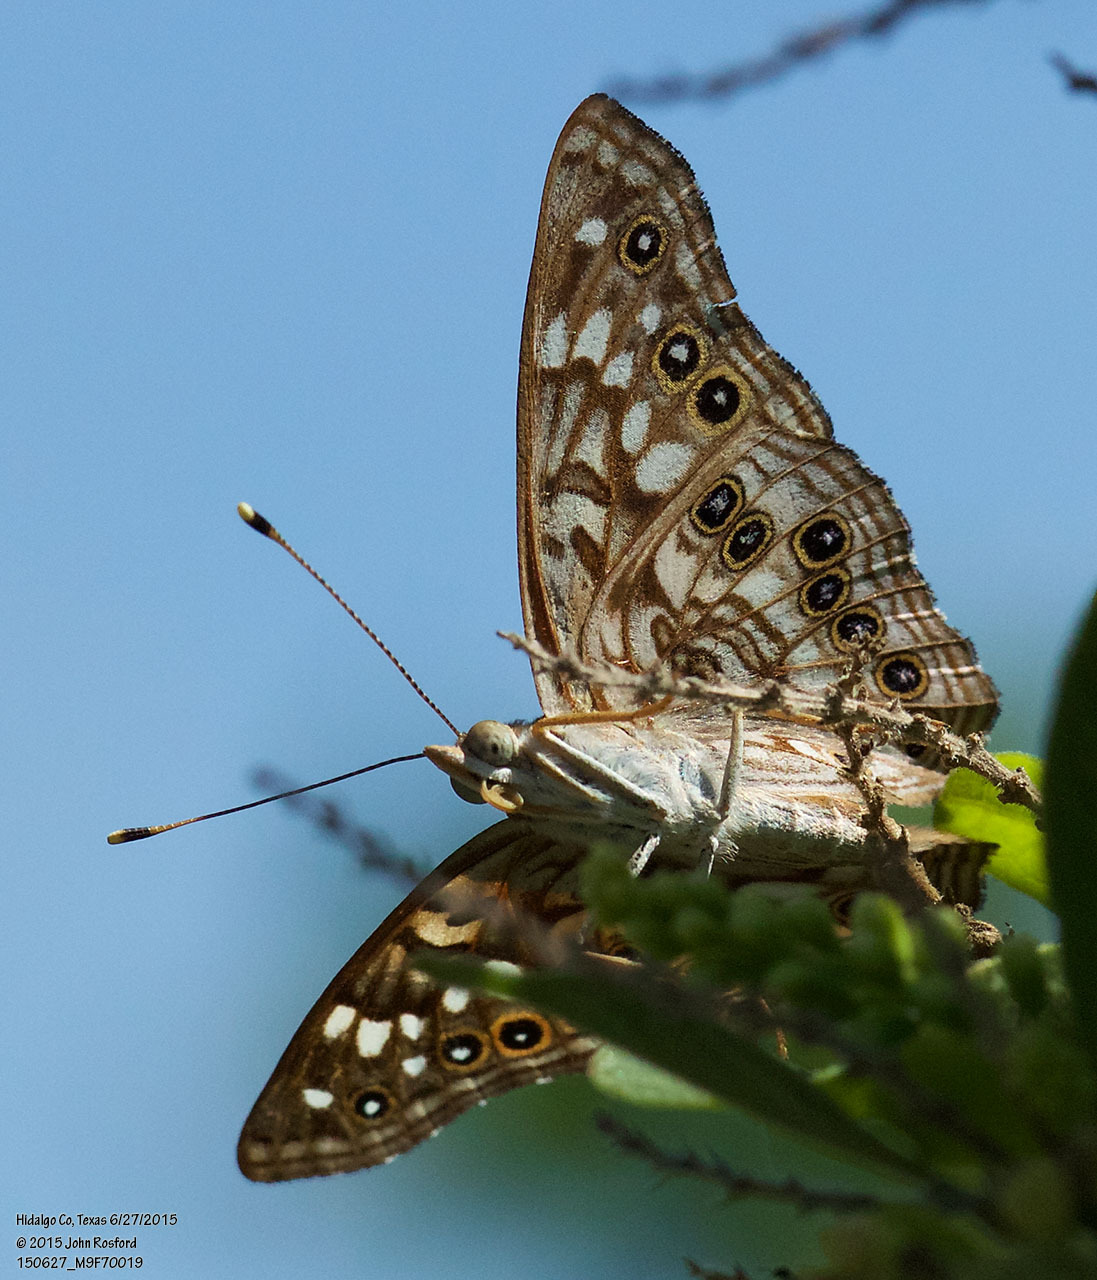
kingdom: Animalia
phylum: Arthropoda
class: Insecta
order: Lepidoptera
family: Nymphalidae
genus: Asterocampa
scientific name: Asterocampa celtis
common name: Hackberry emperor
